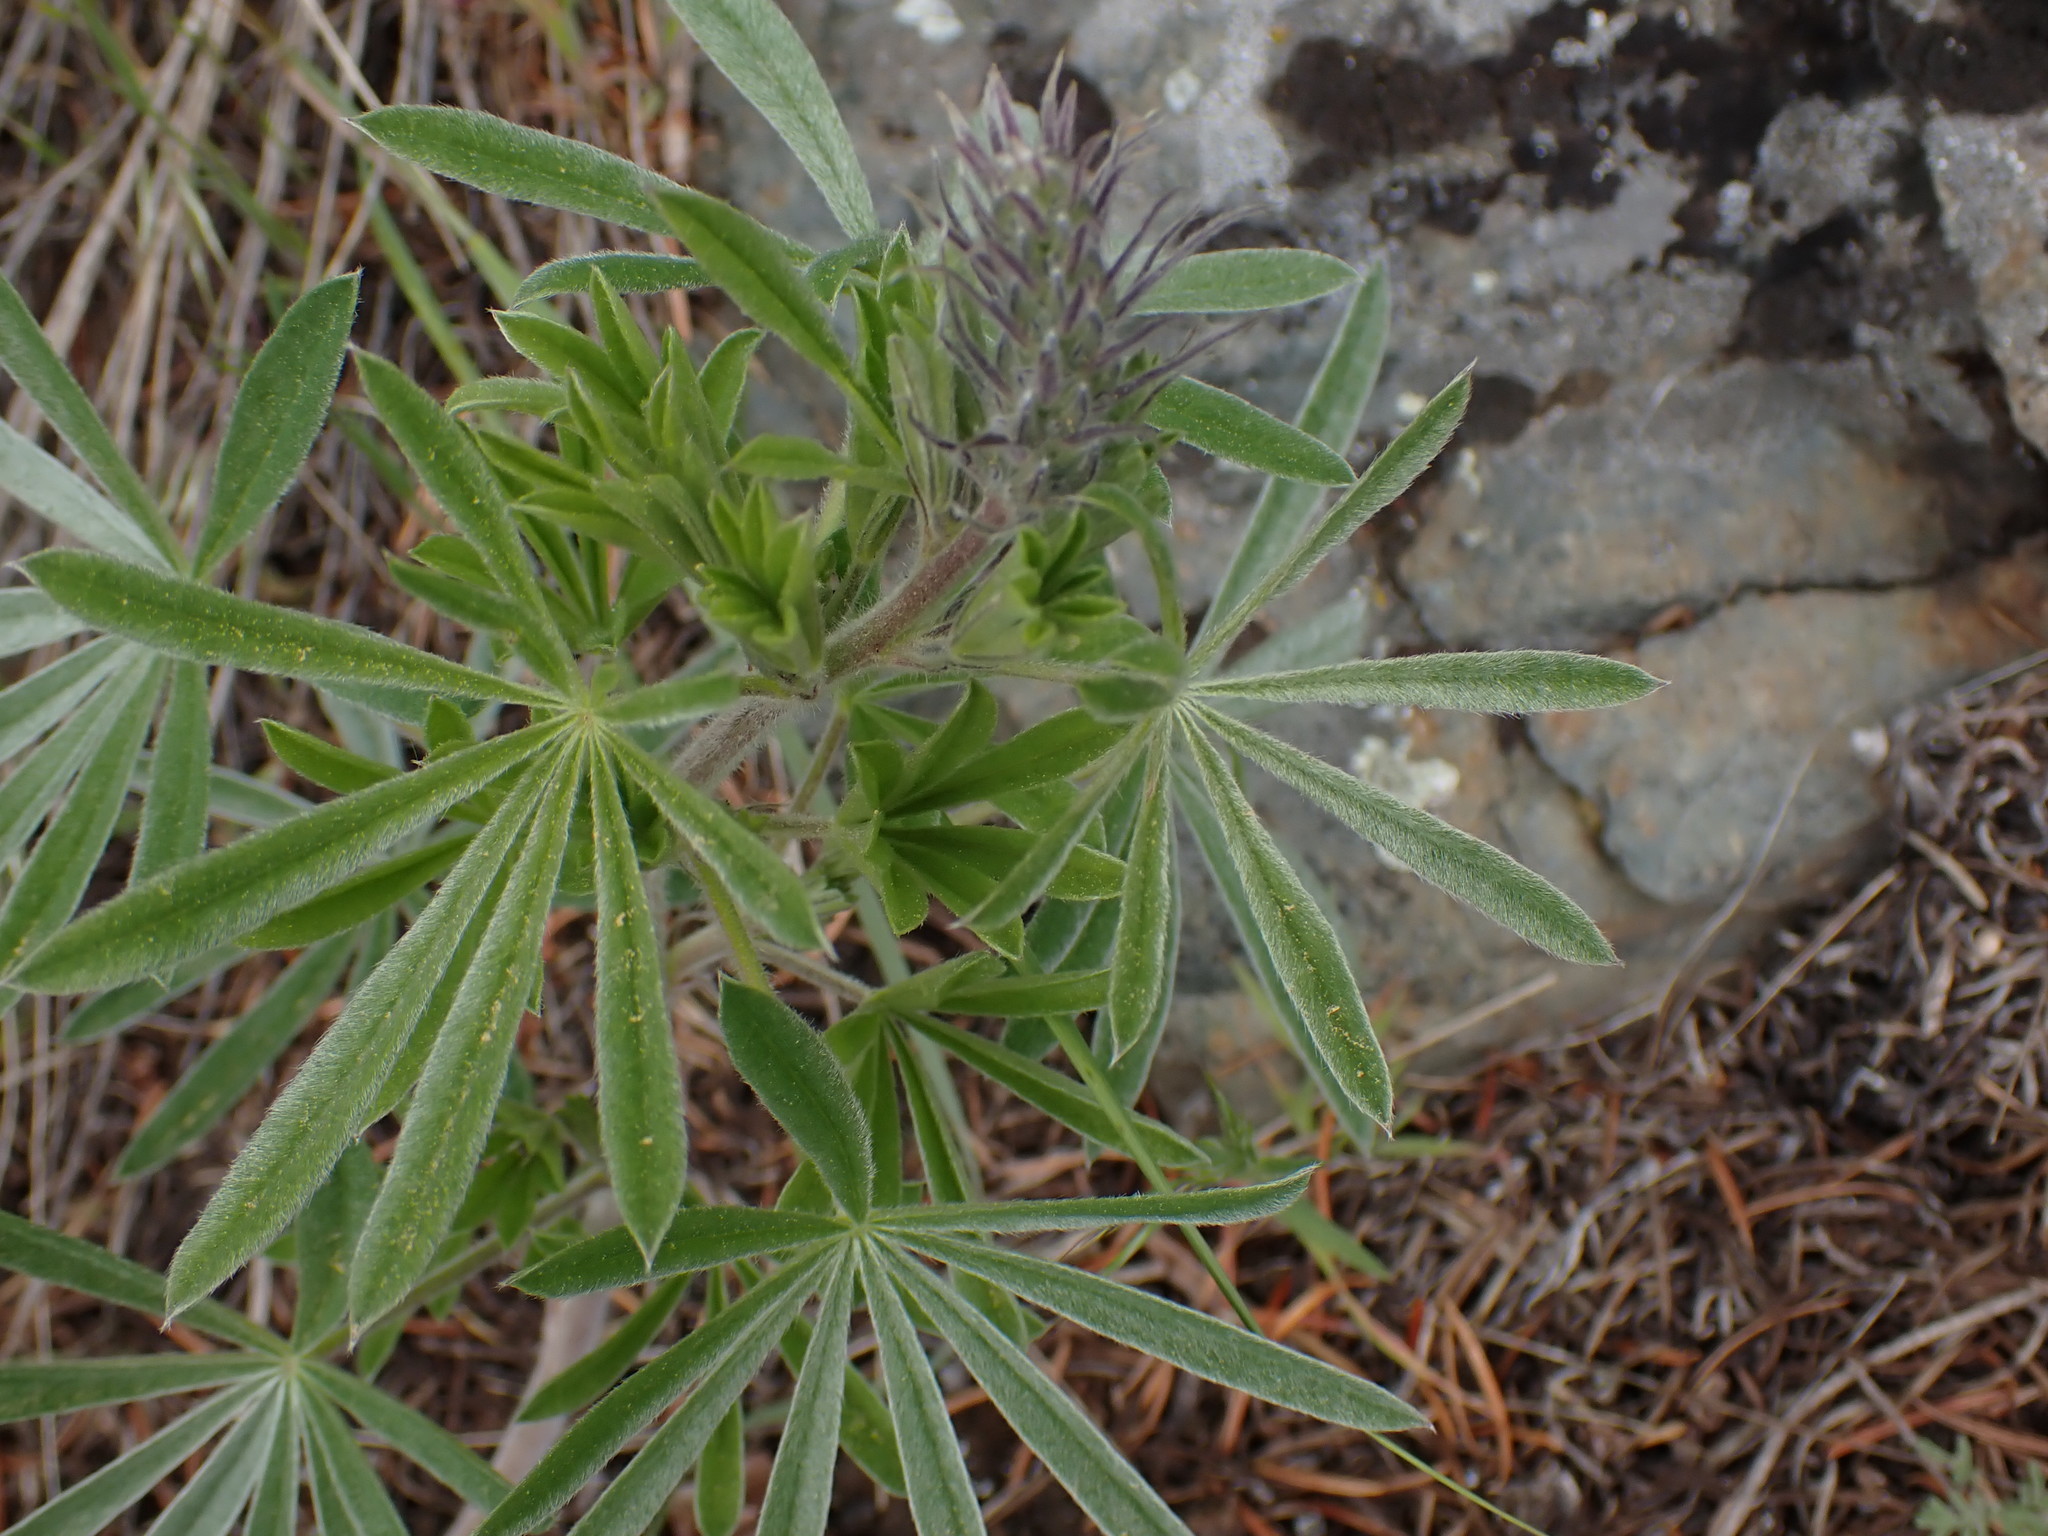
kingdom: Plantae
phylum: Tracheophyta
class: Magnoliopsida
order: Fabales
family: Fabaceae
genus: Lupinus
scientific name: Lupinus sericeus
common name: Silky lupine
